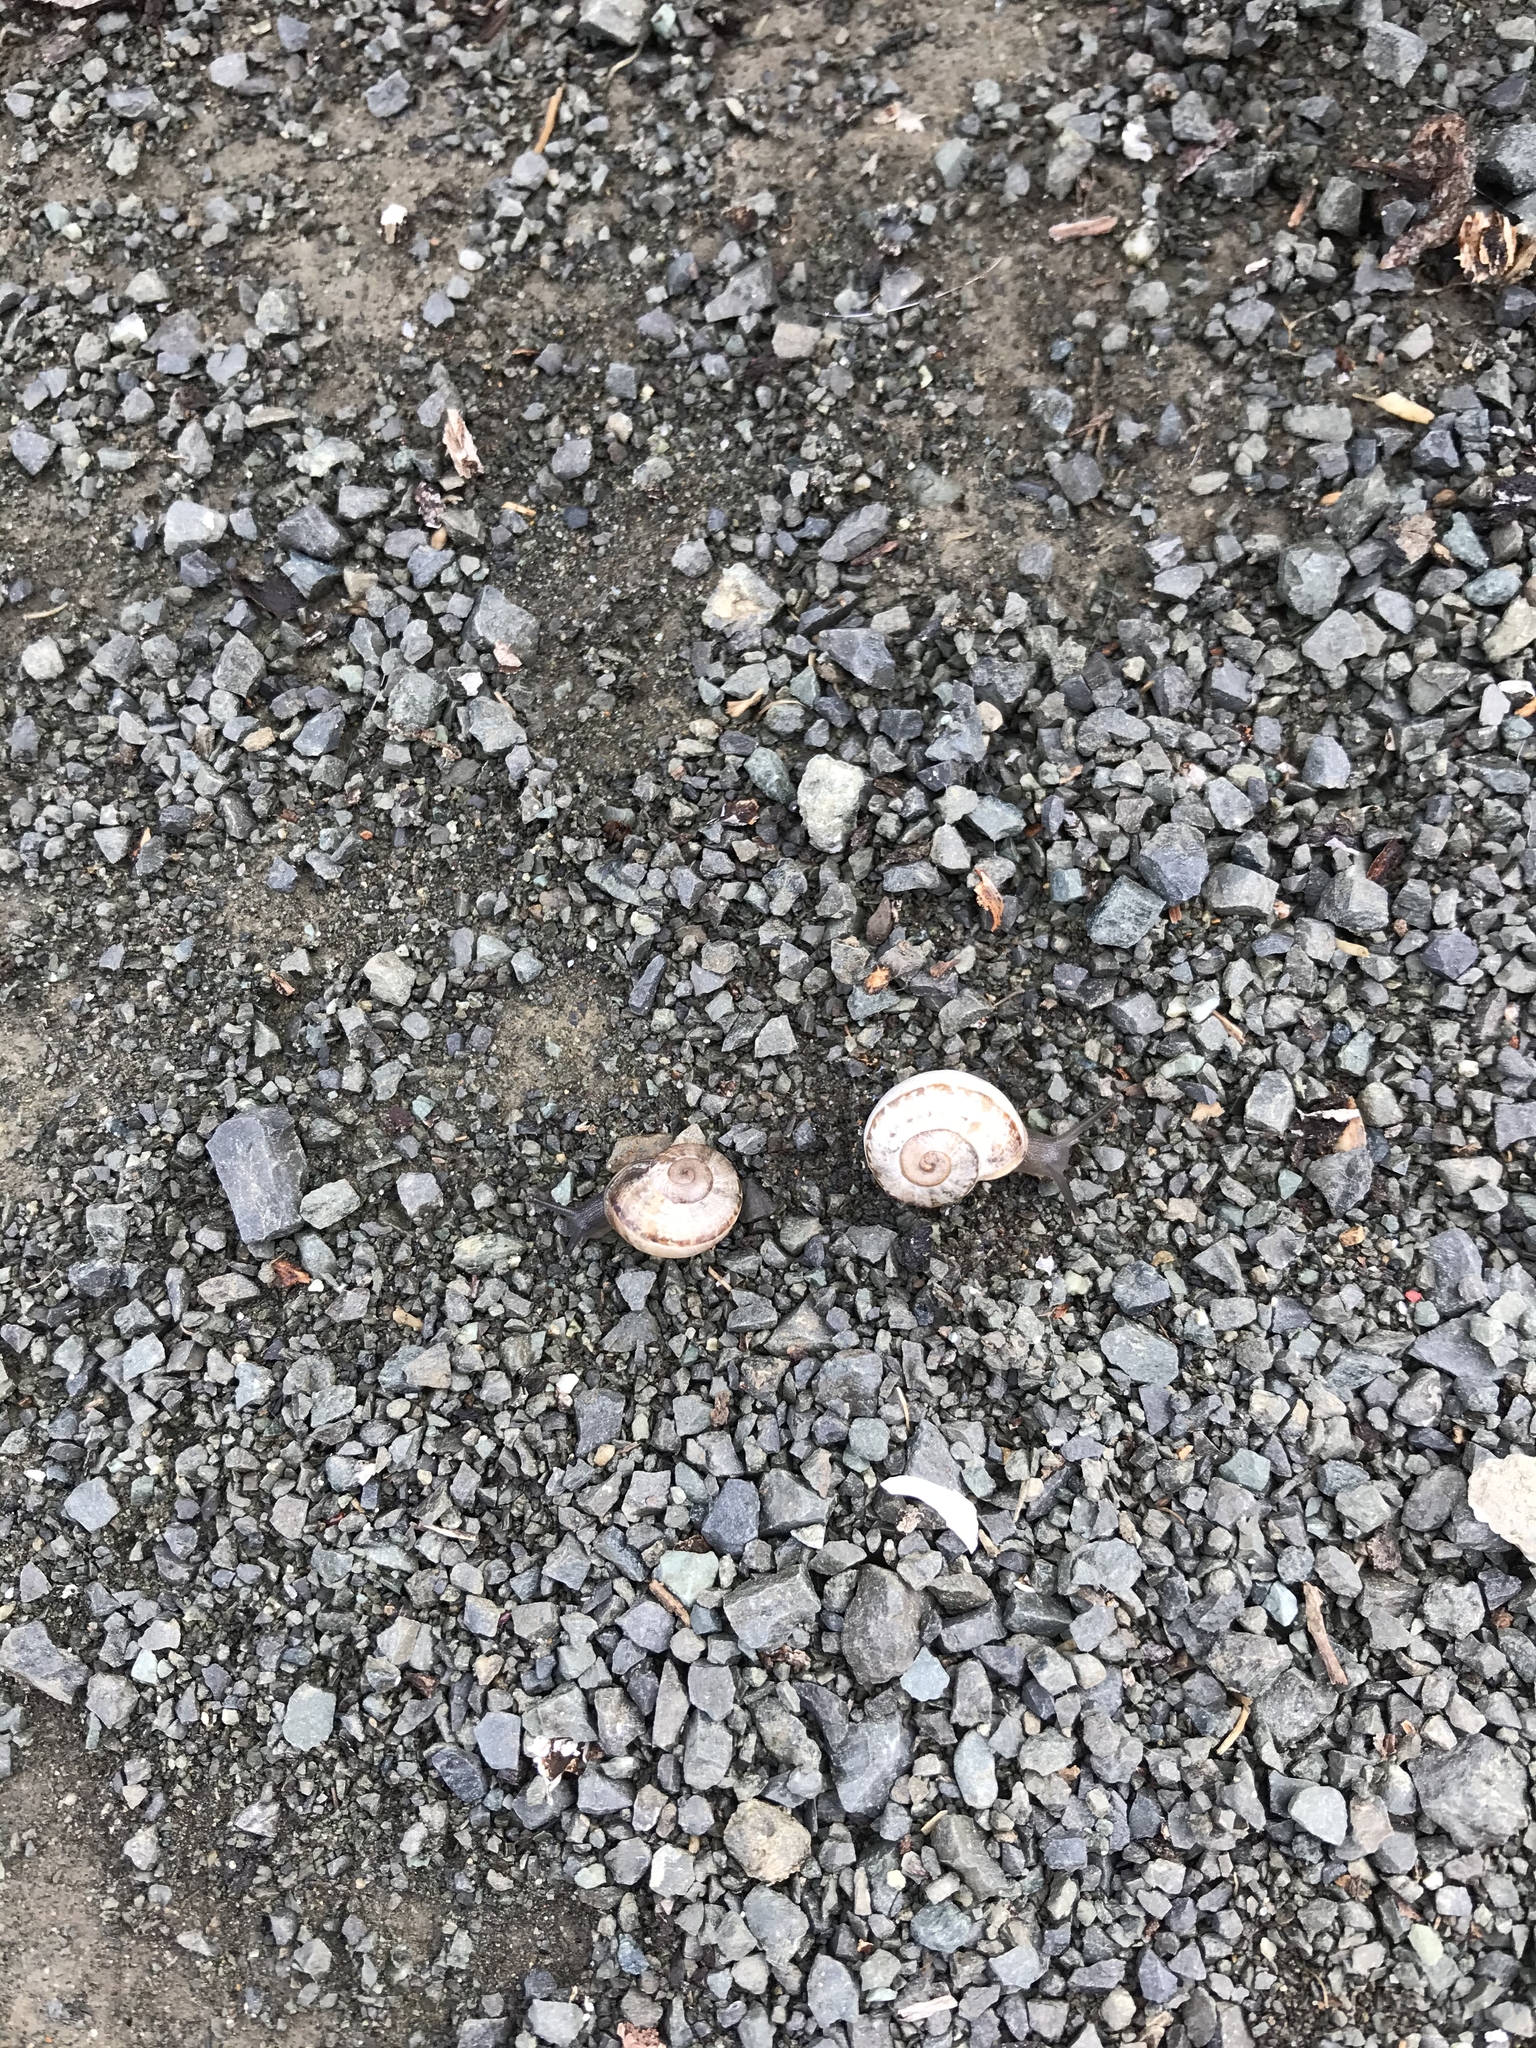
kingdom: Animalia
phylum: Mollusca
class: Gastropoda
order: Stylommatophora
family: Helicidae
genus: Otala
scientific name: Otala lactea
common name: Milk snail
